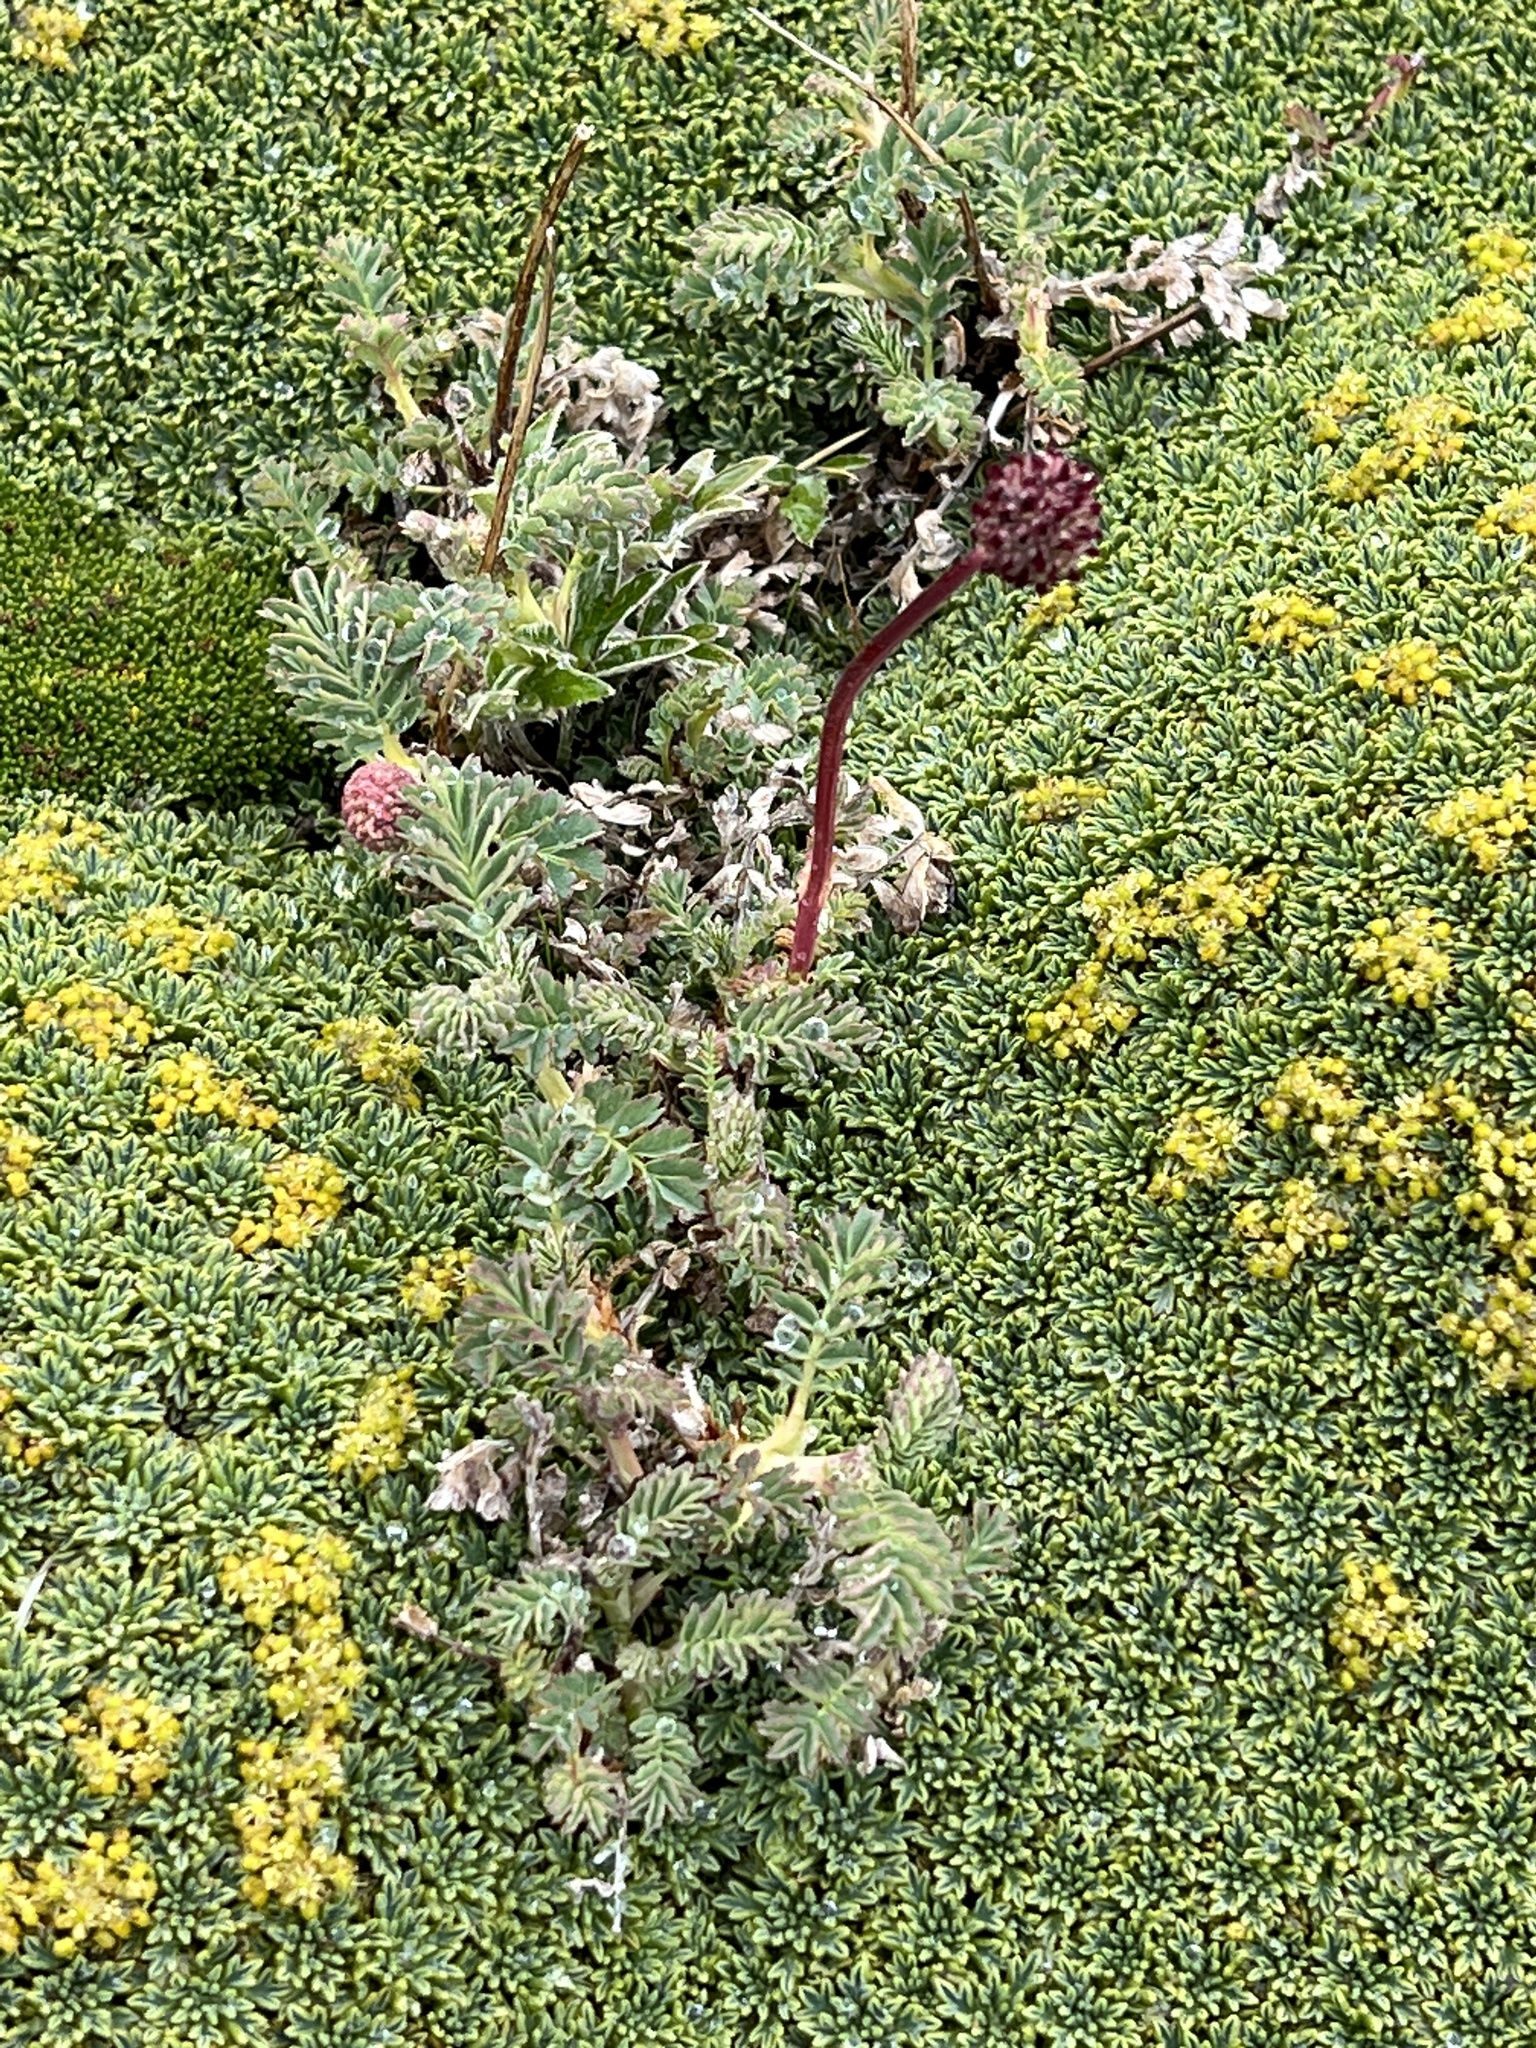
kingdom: Plantae
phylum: Tracheophyta
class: Magnoliopsida
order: Rosales
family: Rosaceae
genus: Acaena
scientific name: Acaena magellanica
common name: New zealand burr
